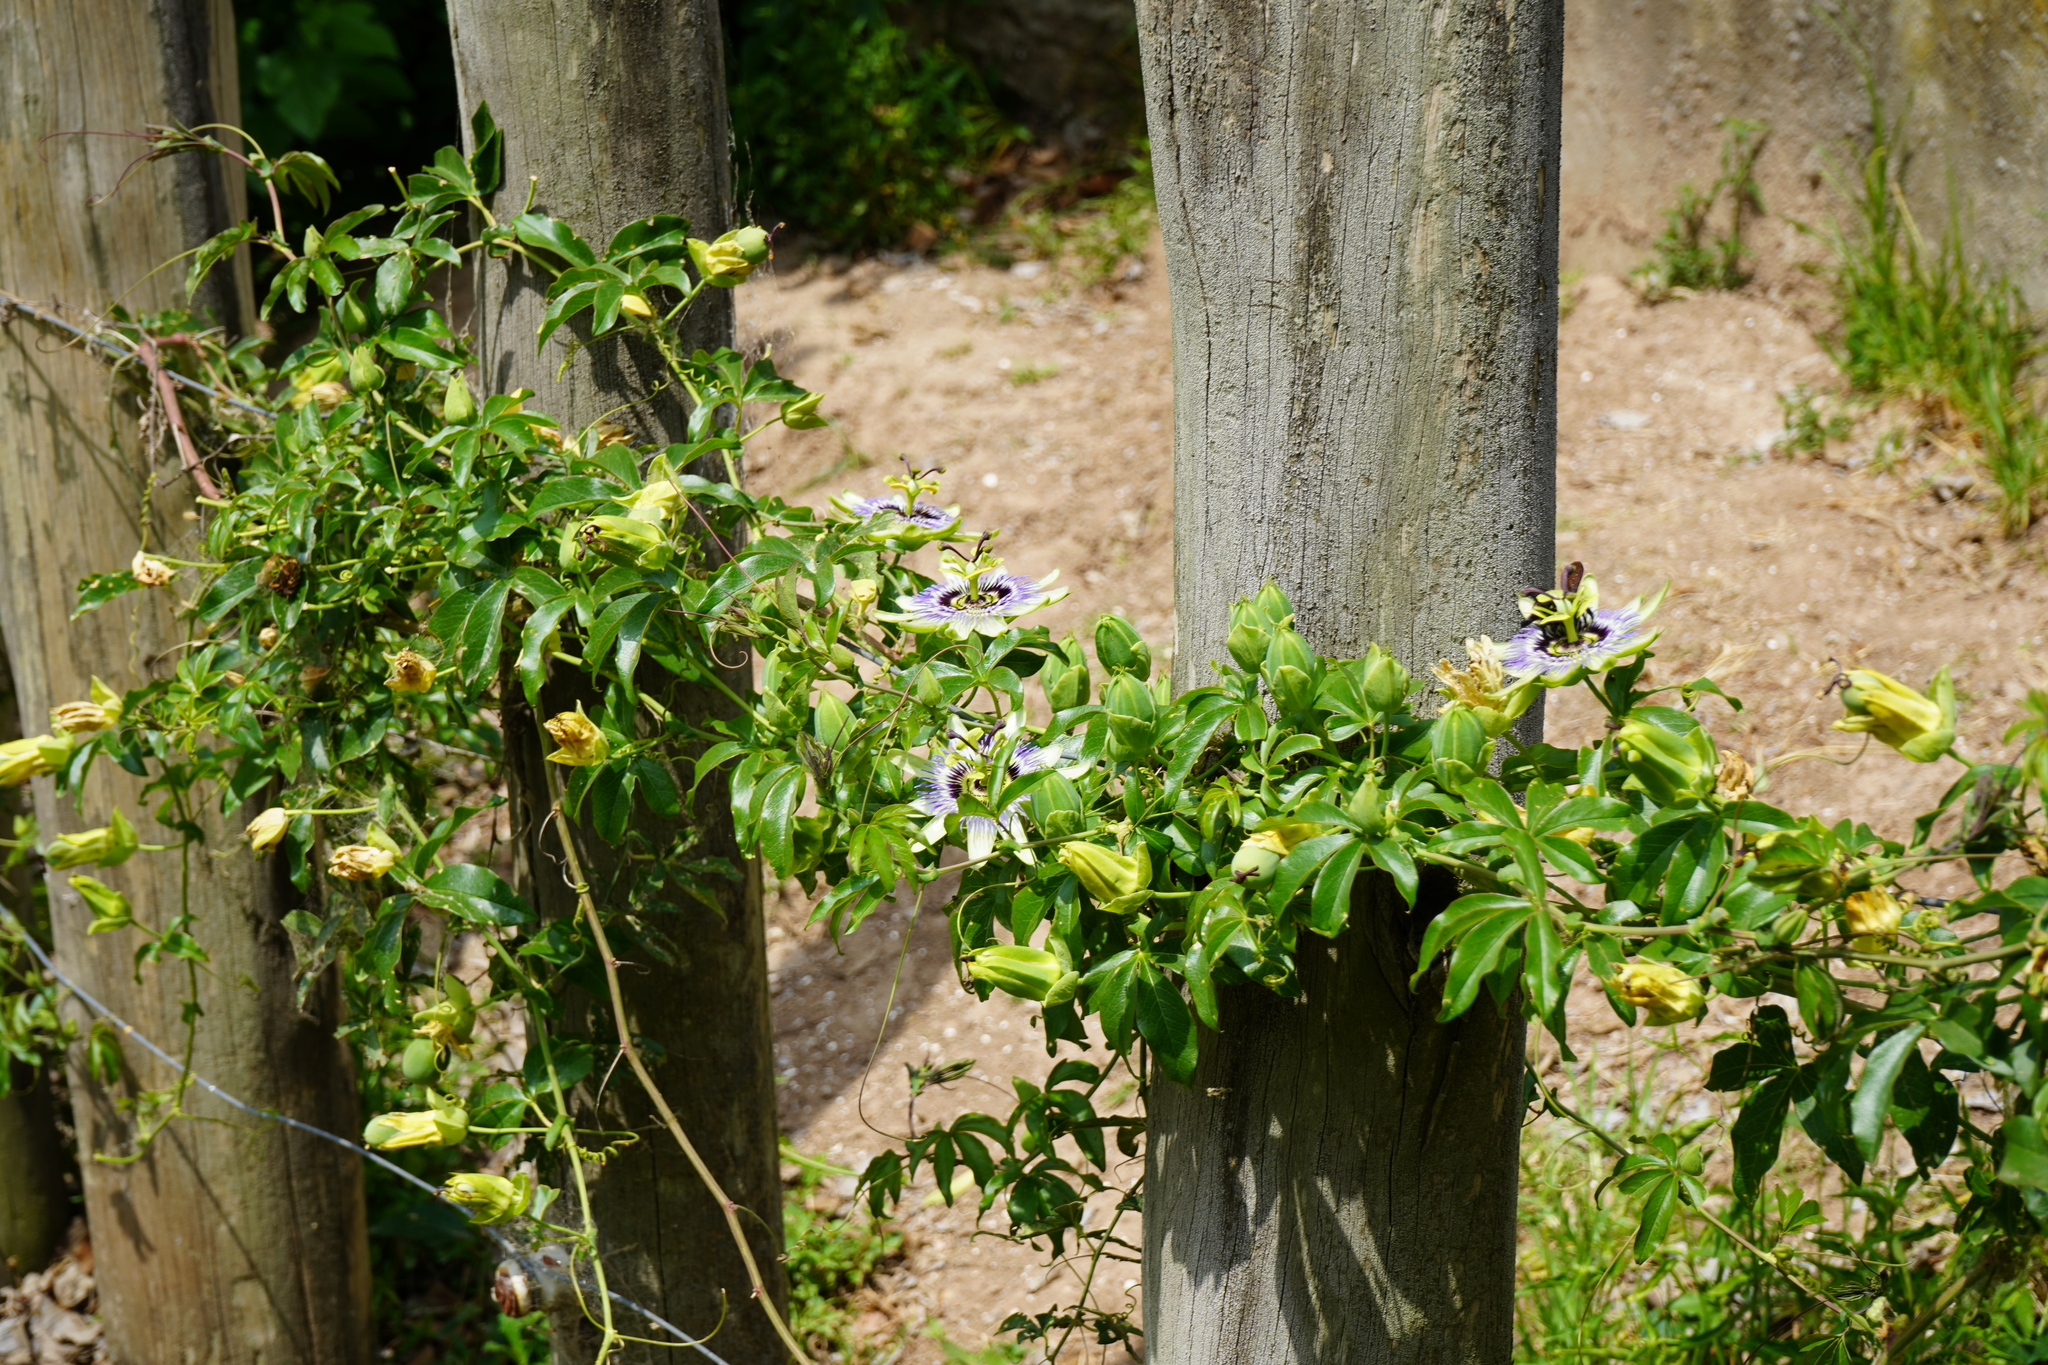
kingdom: Plantae
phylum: Tracheophyta
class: Magnoliopsida
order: Malpighiales
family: Passifloraceae
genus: Passiflora
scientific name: Passiflora caerulea
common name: Blue passionflower
